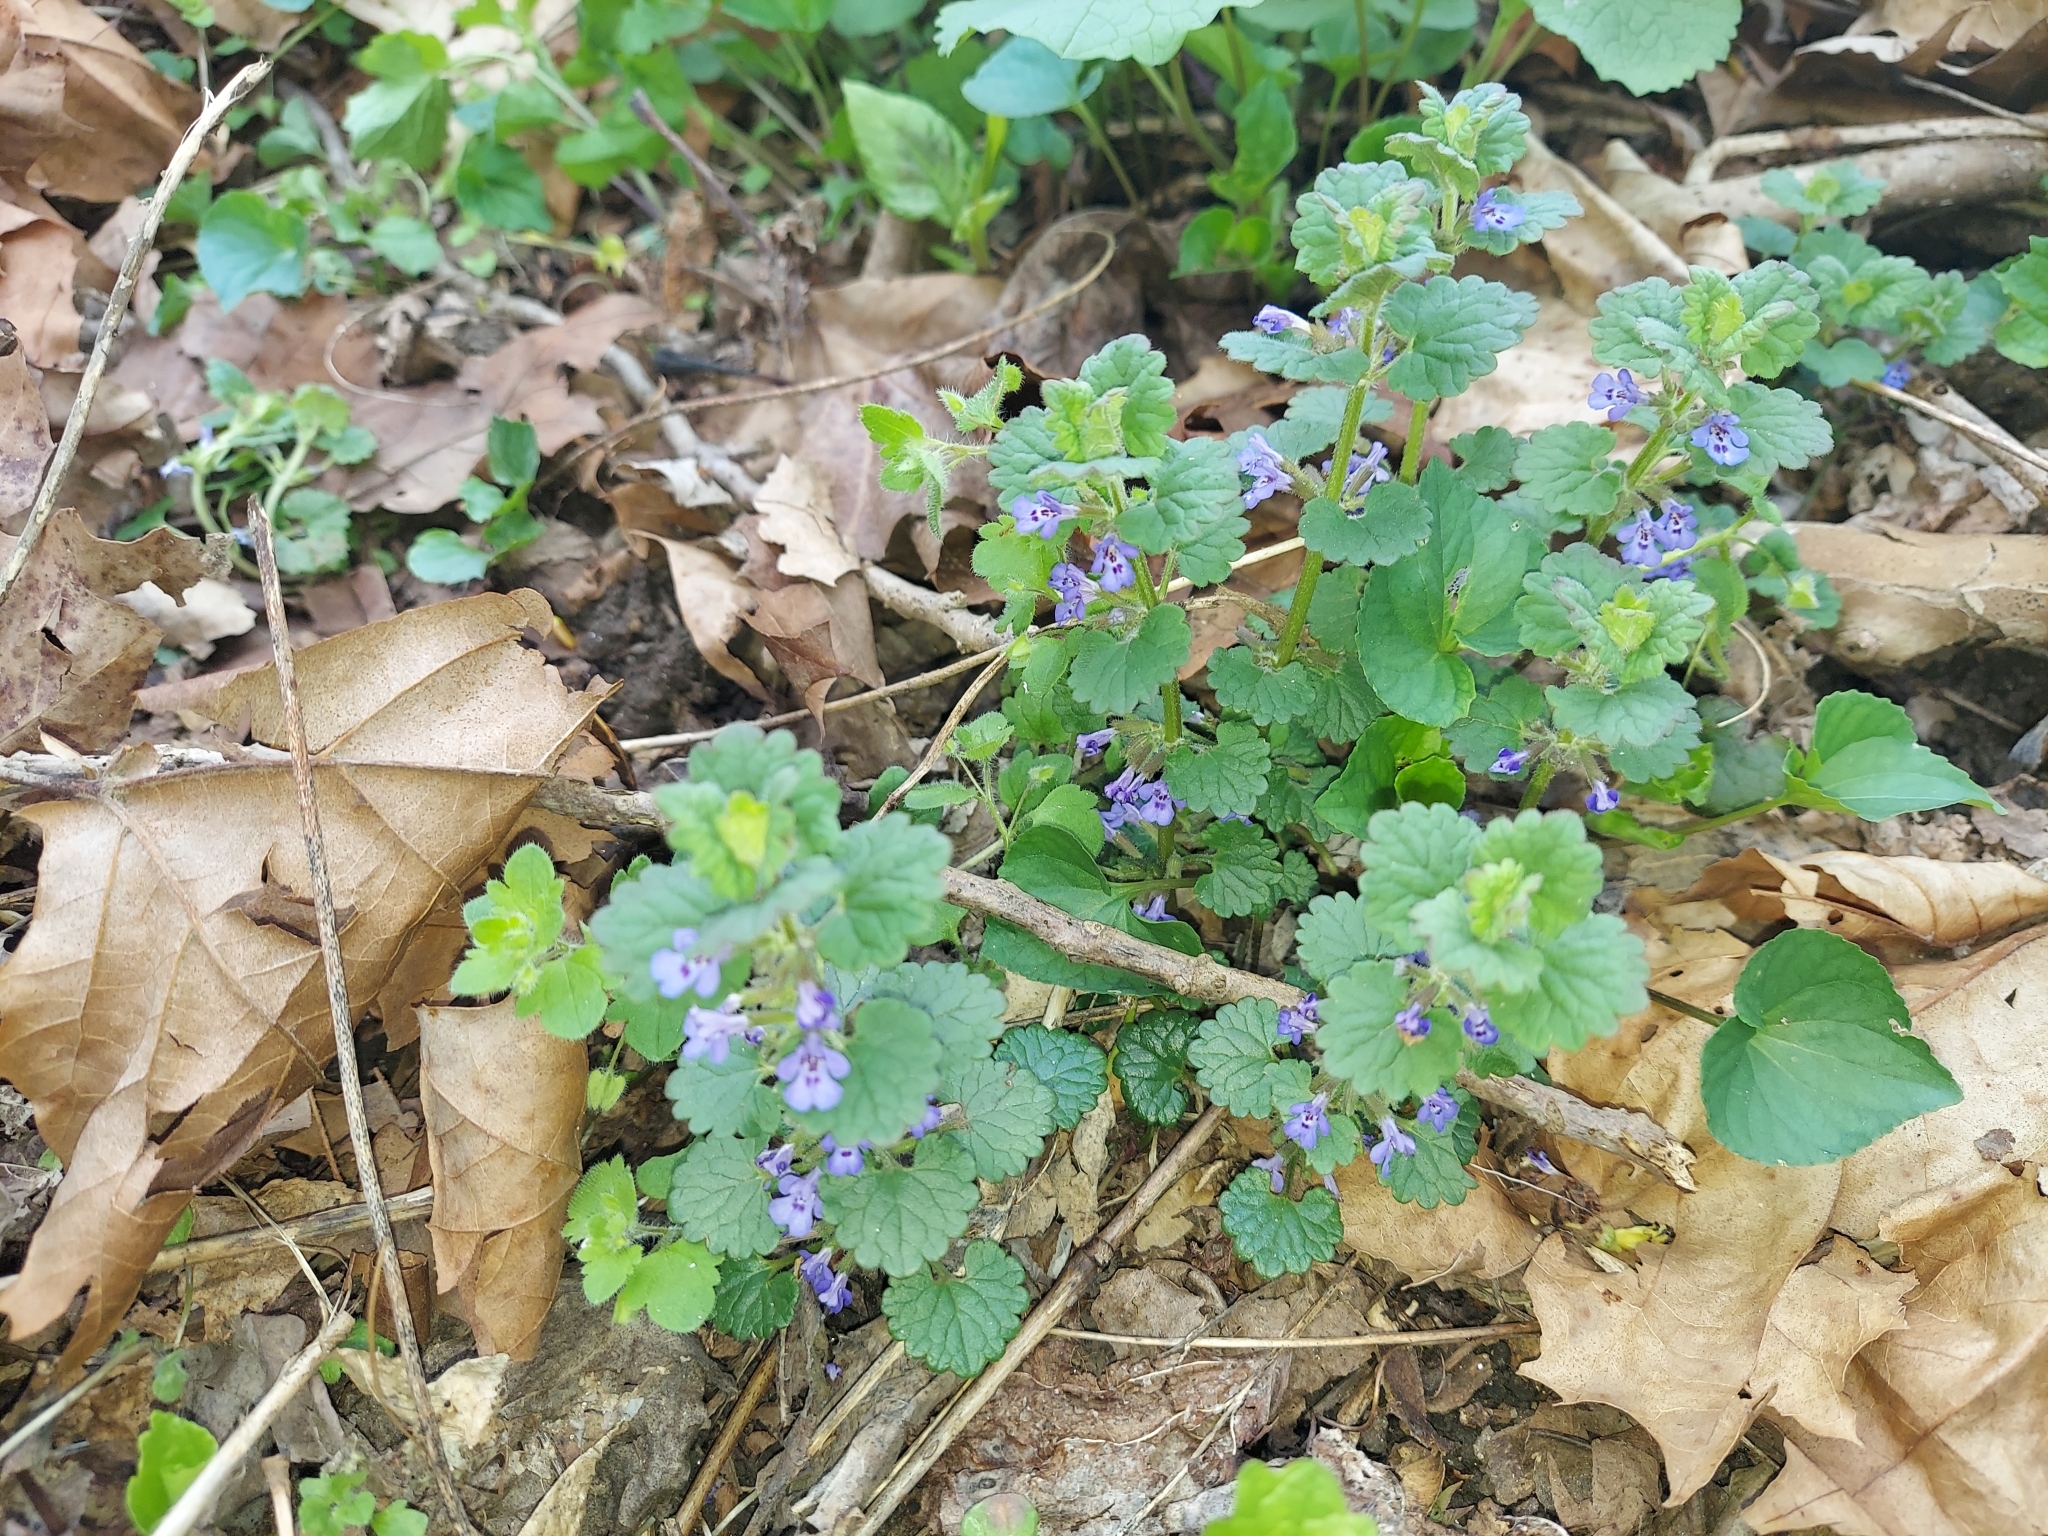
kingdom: Plantae
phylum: Tracheophyta
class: Magnoliopsida
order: Lamiales
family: Lamiaceae
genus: Glechoma
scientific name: Glechoma hederacea
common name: Ground ivy
